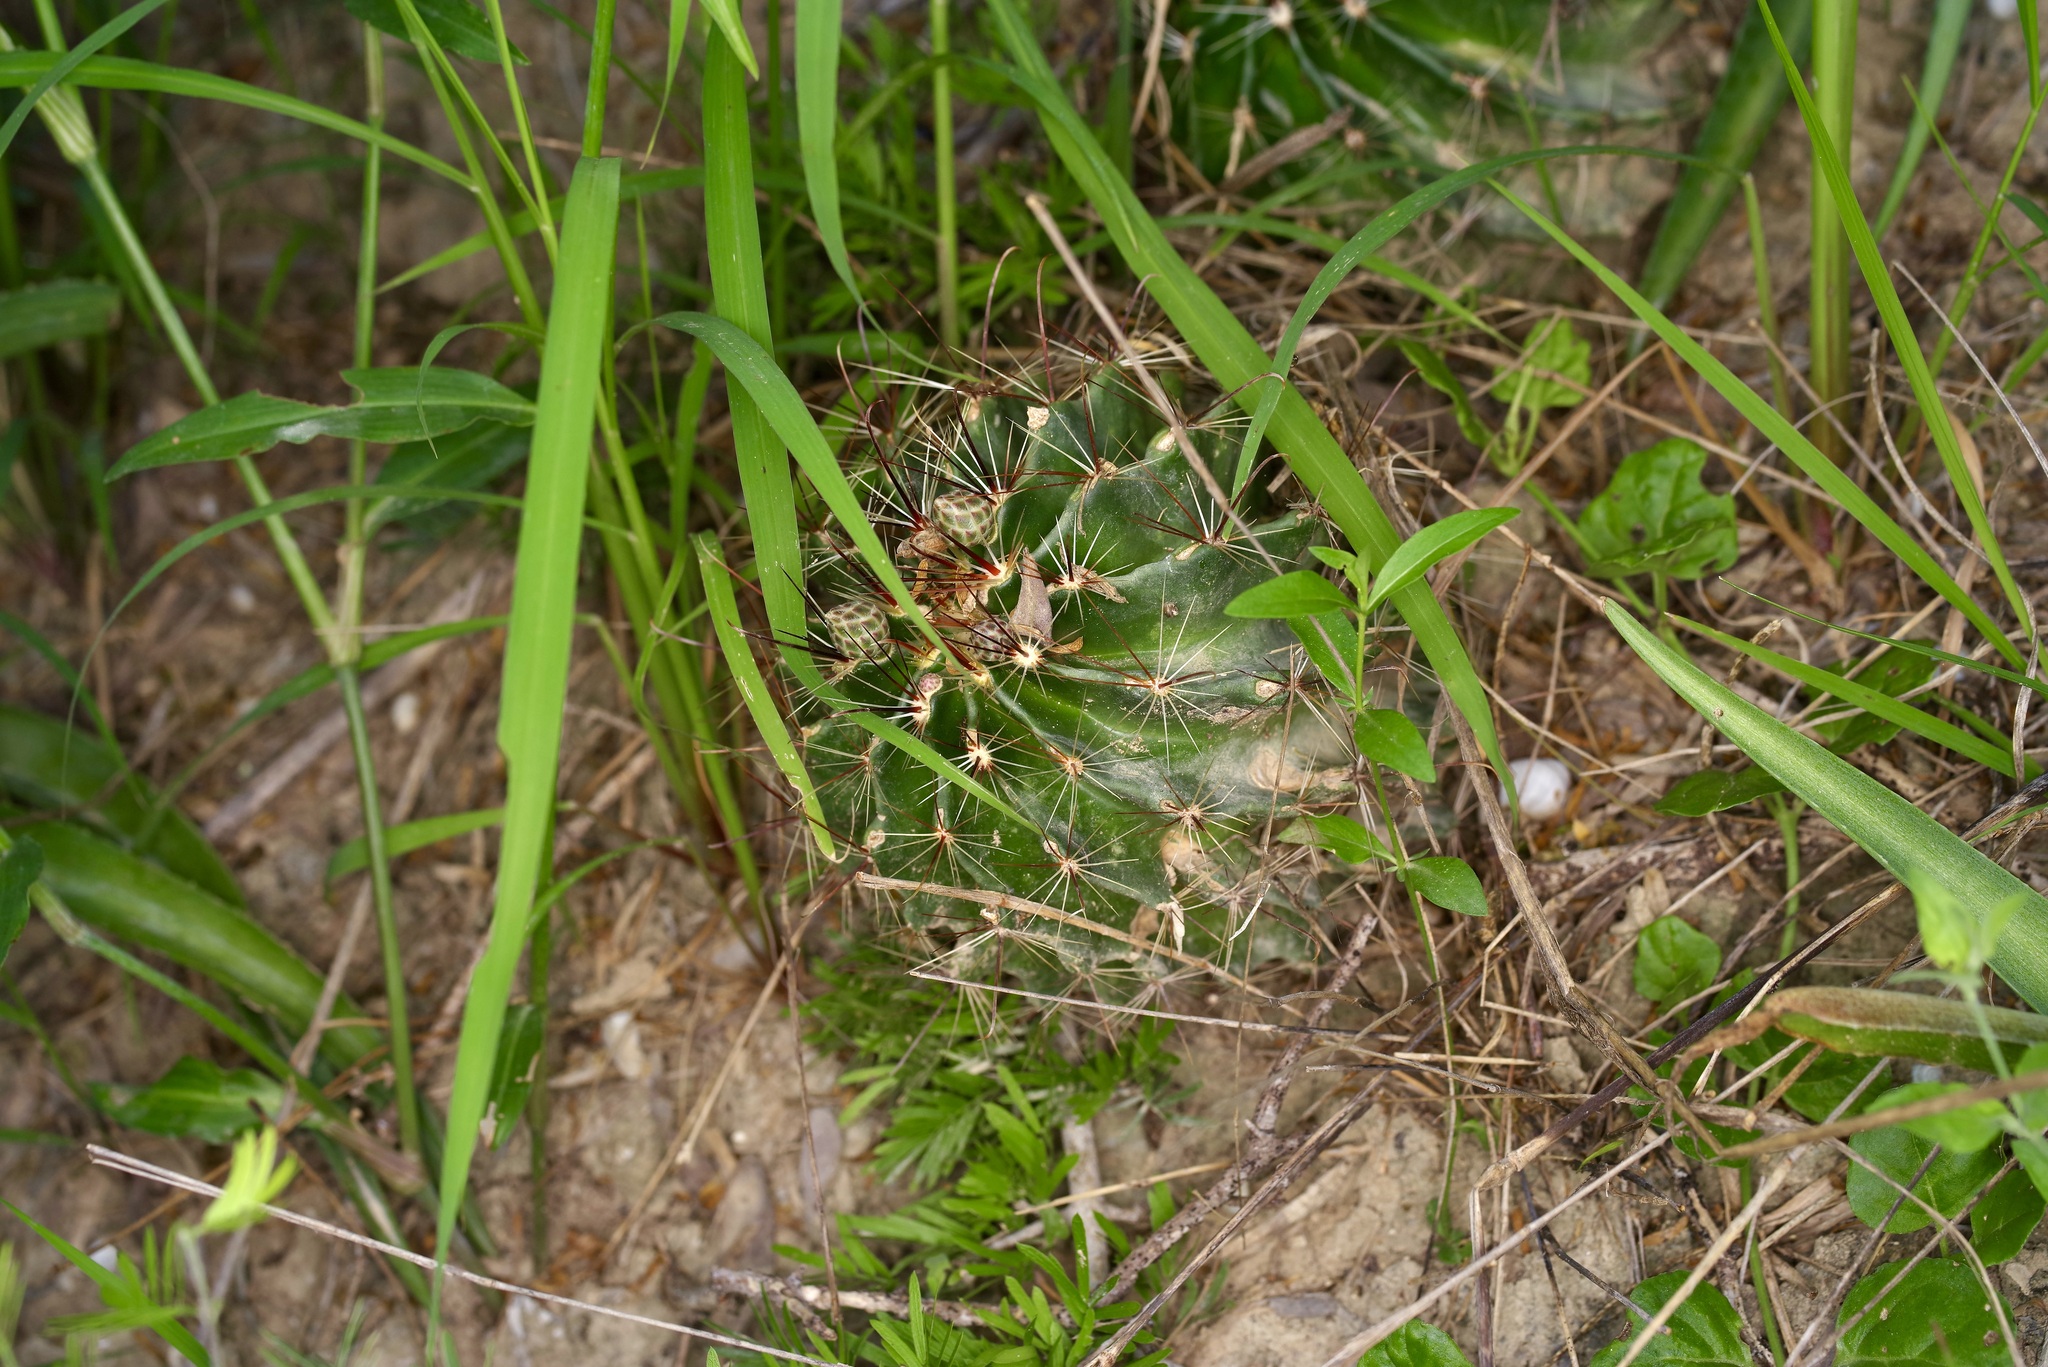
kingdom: Plantae
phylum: Tracheophyta
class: Magnoliopsida
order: Caryophyllales
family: Cactaceae
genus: Thelocactus
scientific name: Thelocactus setispinus
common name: Miniature barrel cactus
